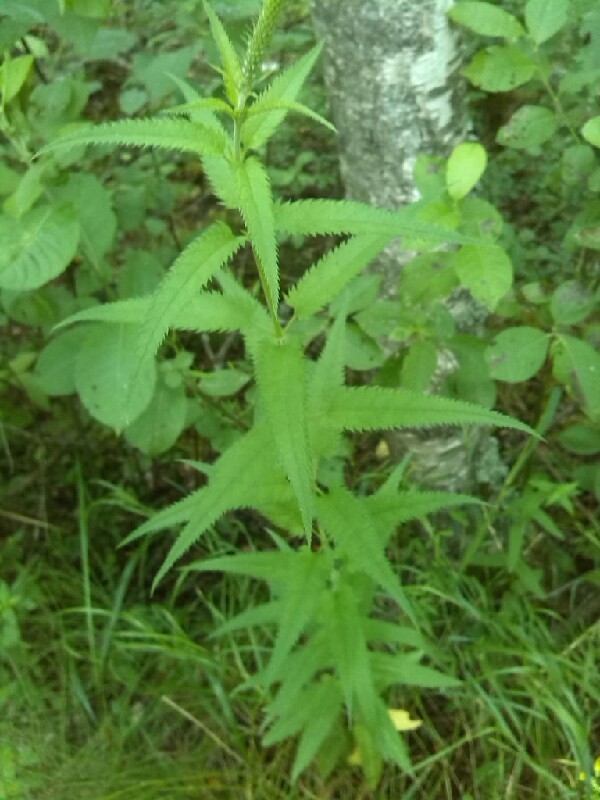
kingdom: Plantae
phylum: Tracheophyta
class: Magnoliopsida
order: Lamiales
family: Plantaginaceae
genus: Veronica
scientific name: Veronica longifolia
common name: Garden speedwell
